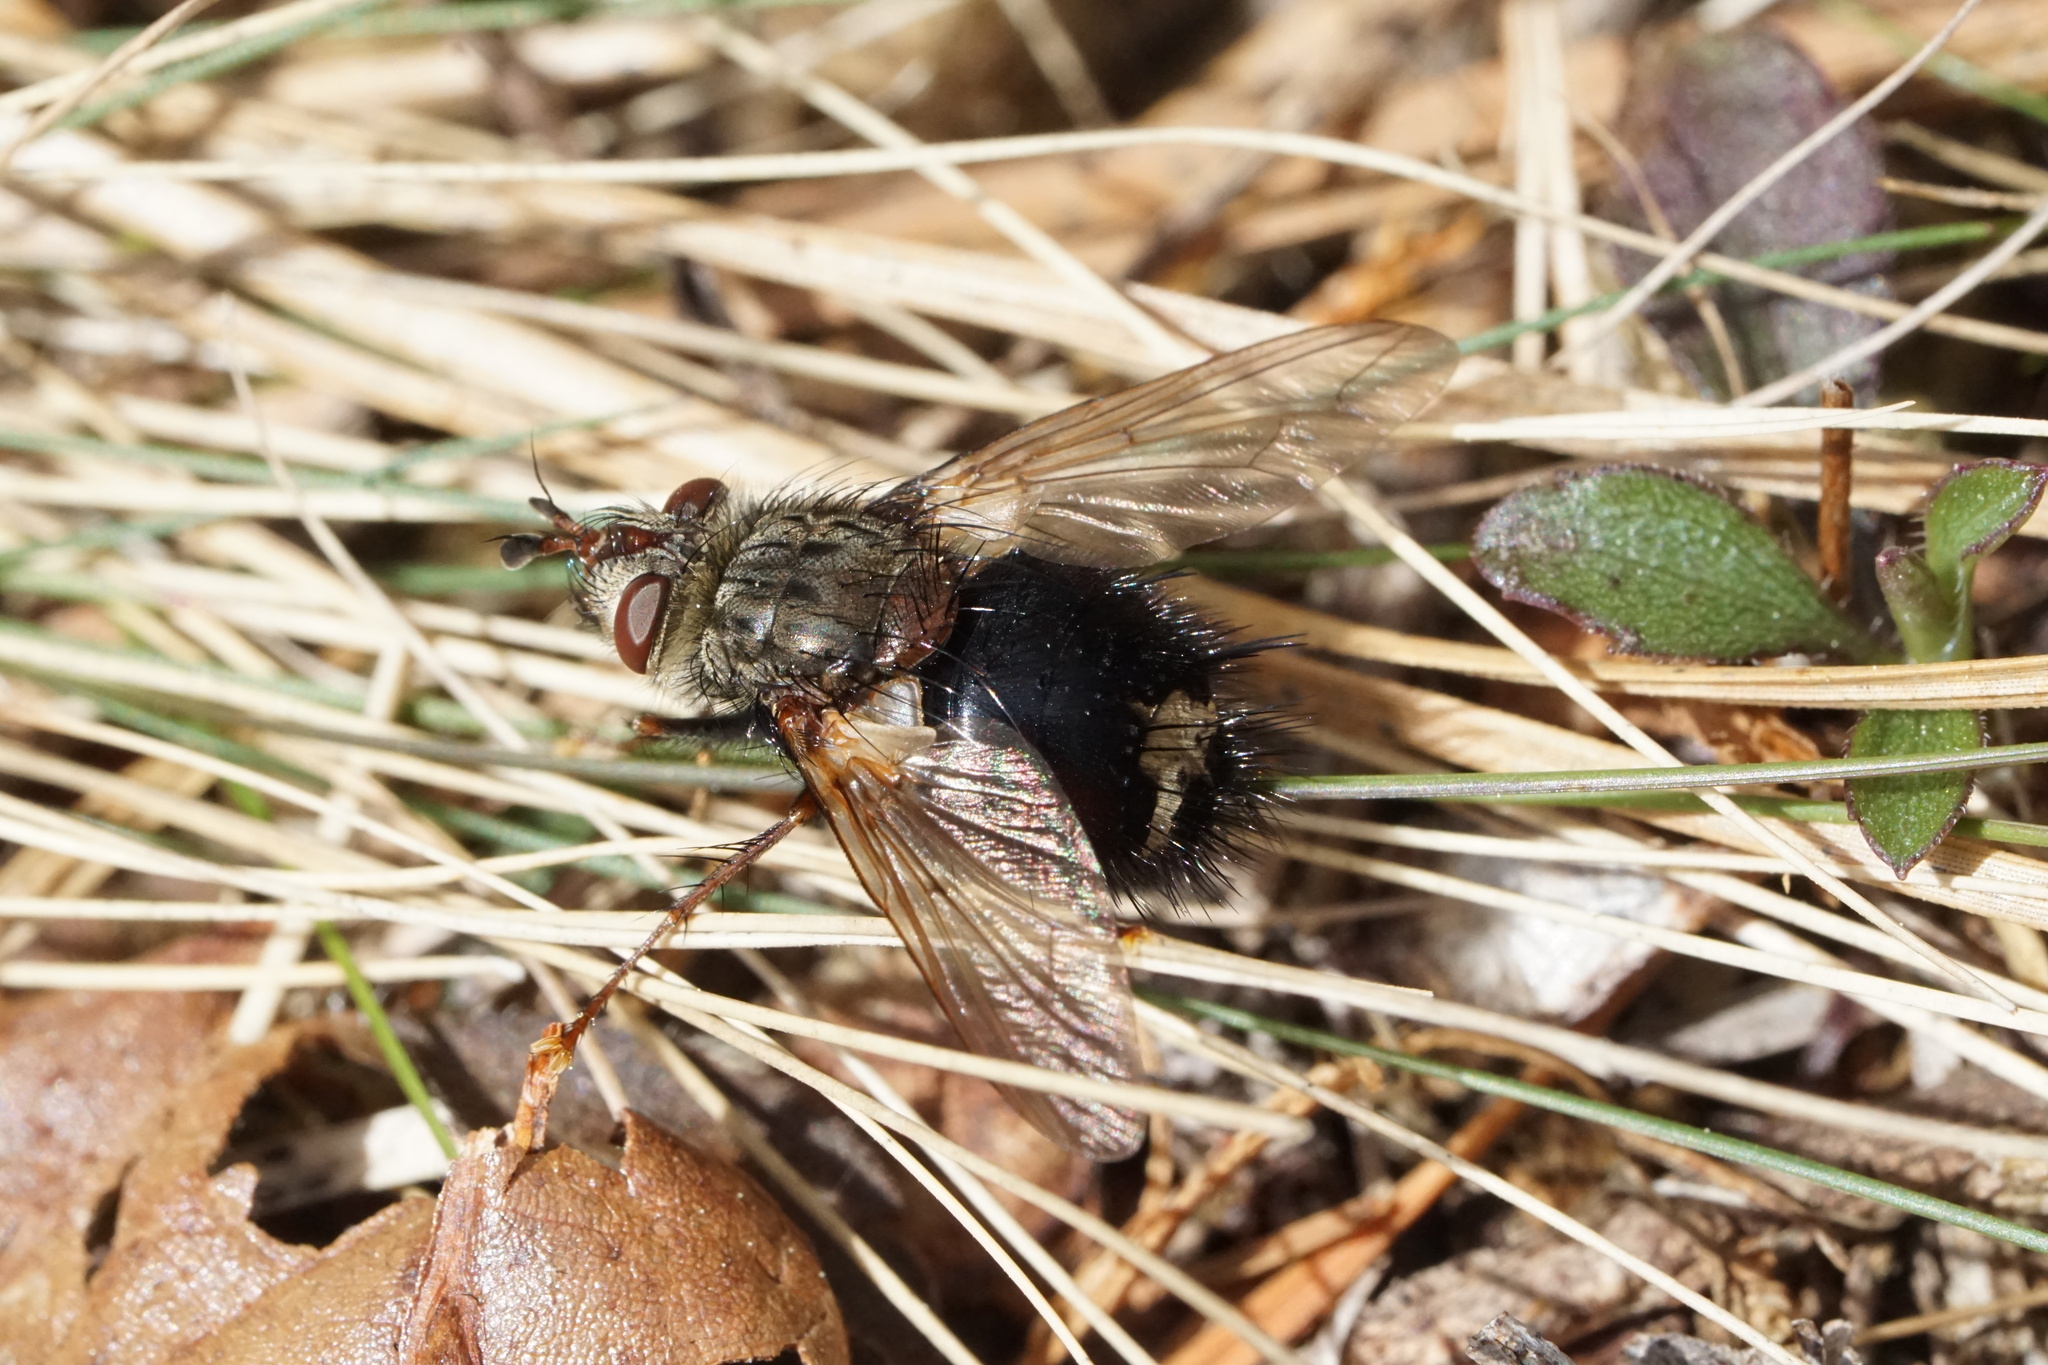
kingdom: Animalia
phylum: Arthropoda
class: Insecta
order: Diptera
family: Tachinidae
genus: Epalpus
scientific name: Epalpus signifer
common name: Early tachinid fly
